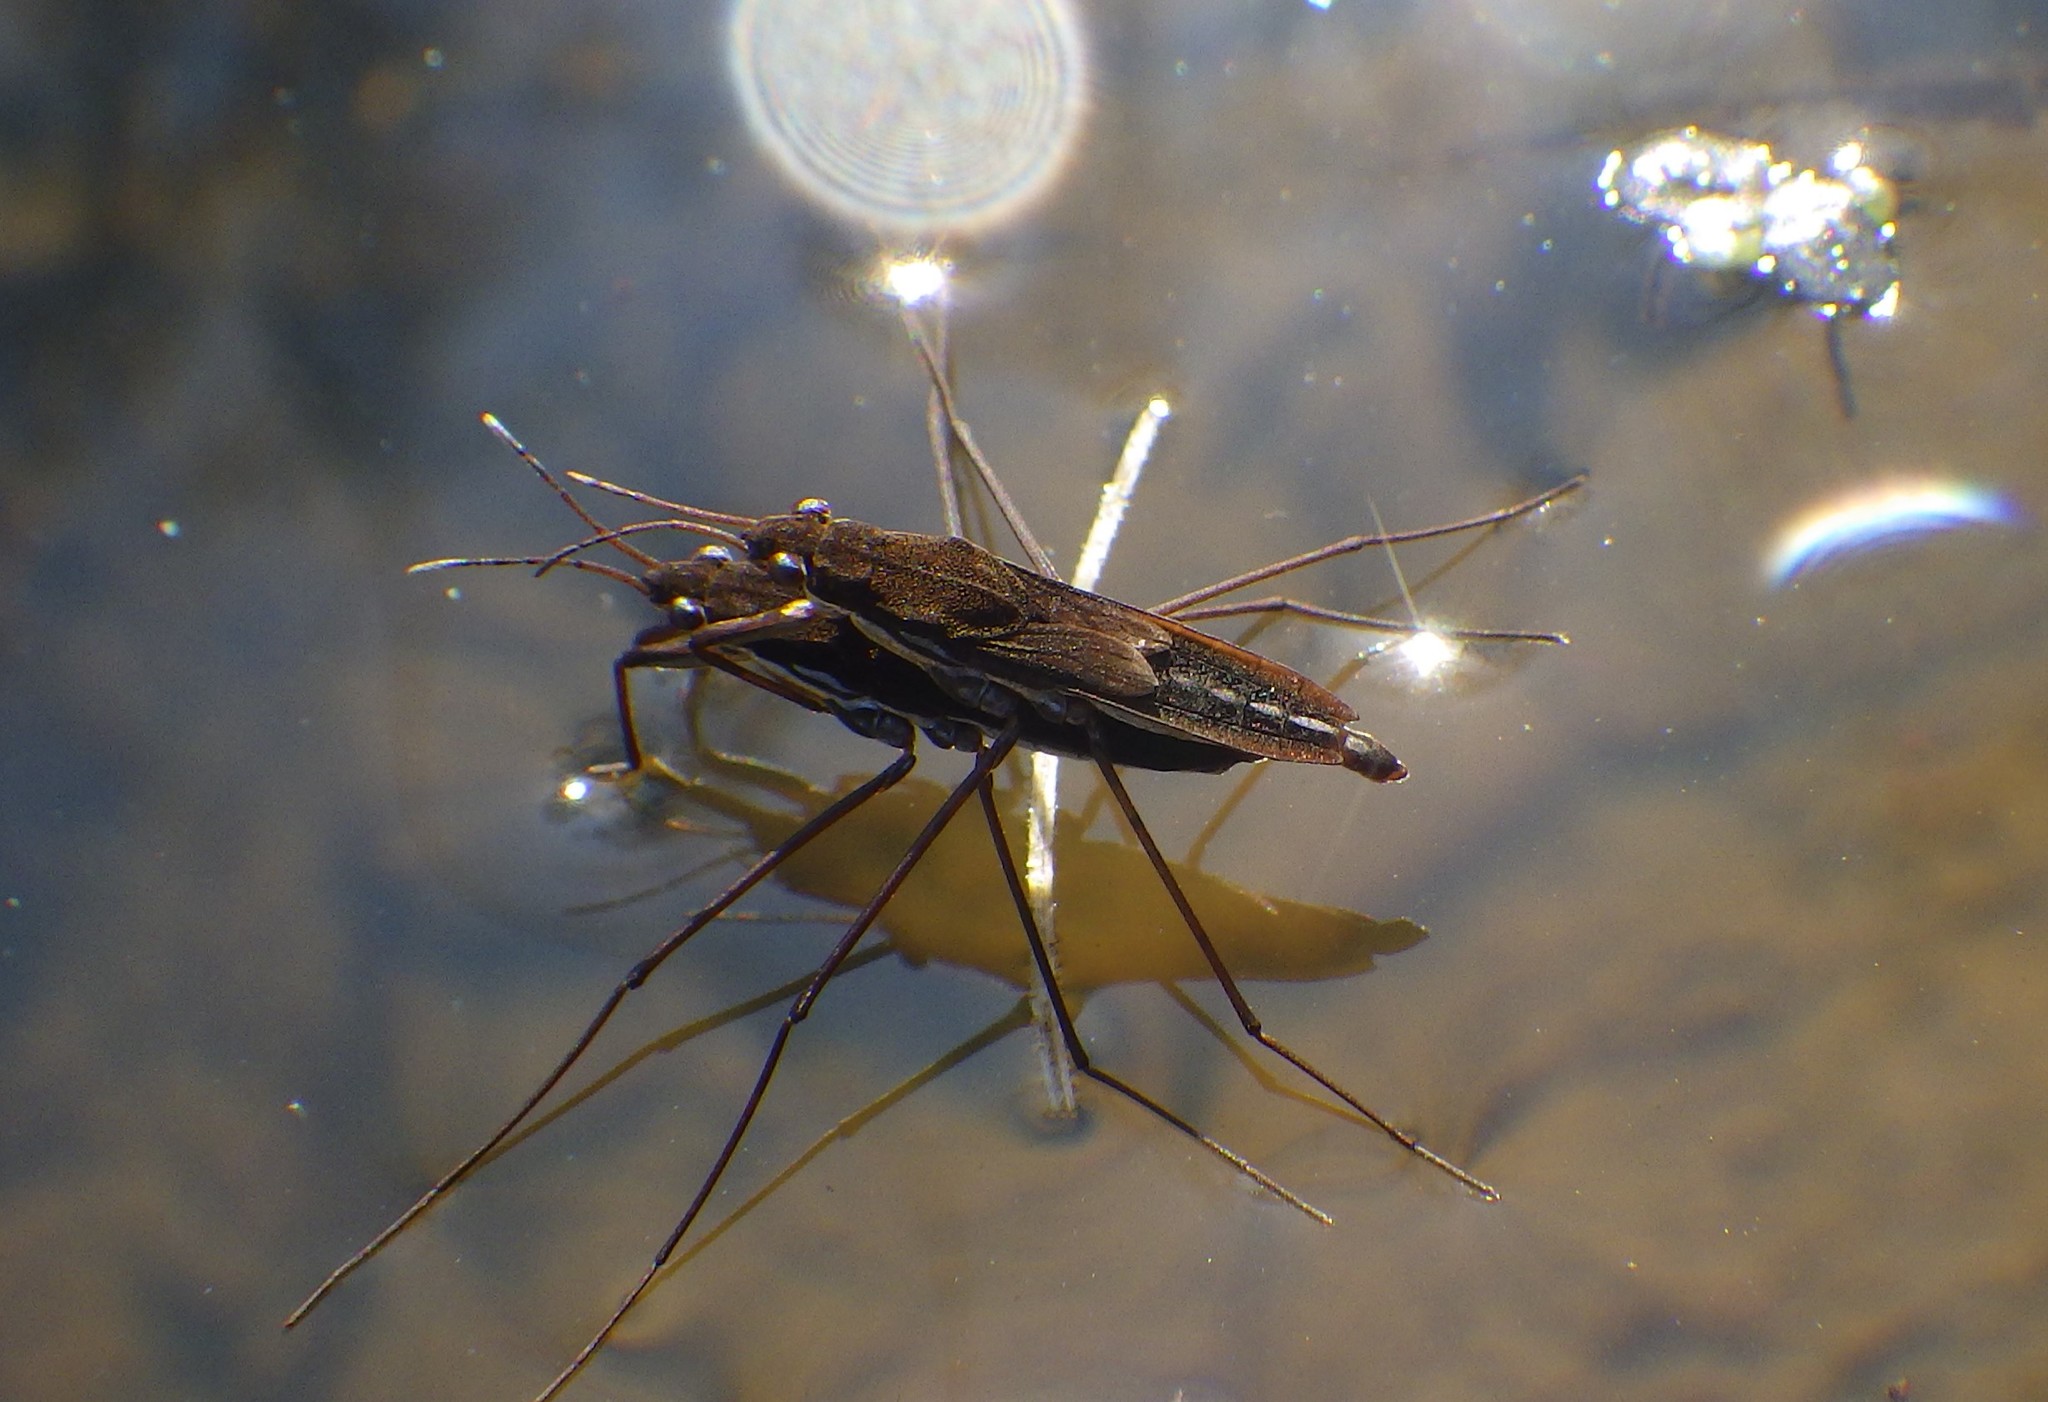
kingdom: Animalia
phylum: Arthropoda
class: Insecta
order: Hemiptera
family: Gerridae
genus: Gerris
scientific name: Gerris lateralis
